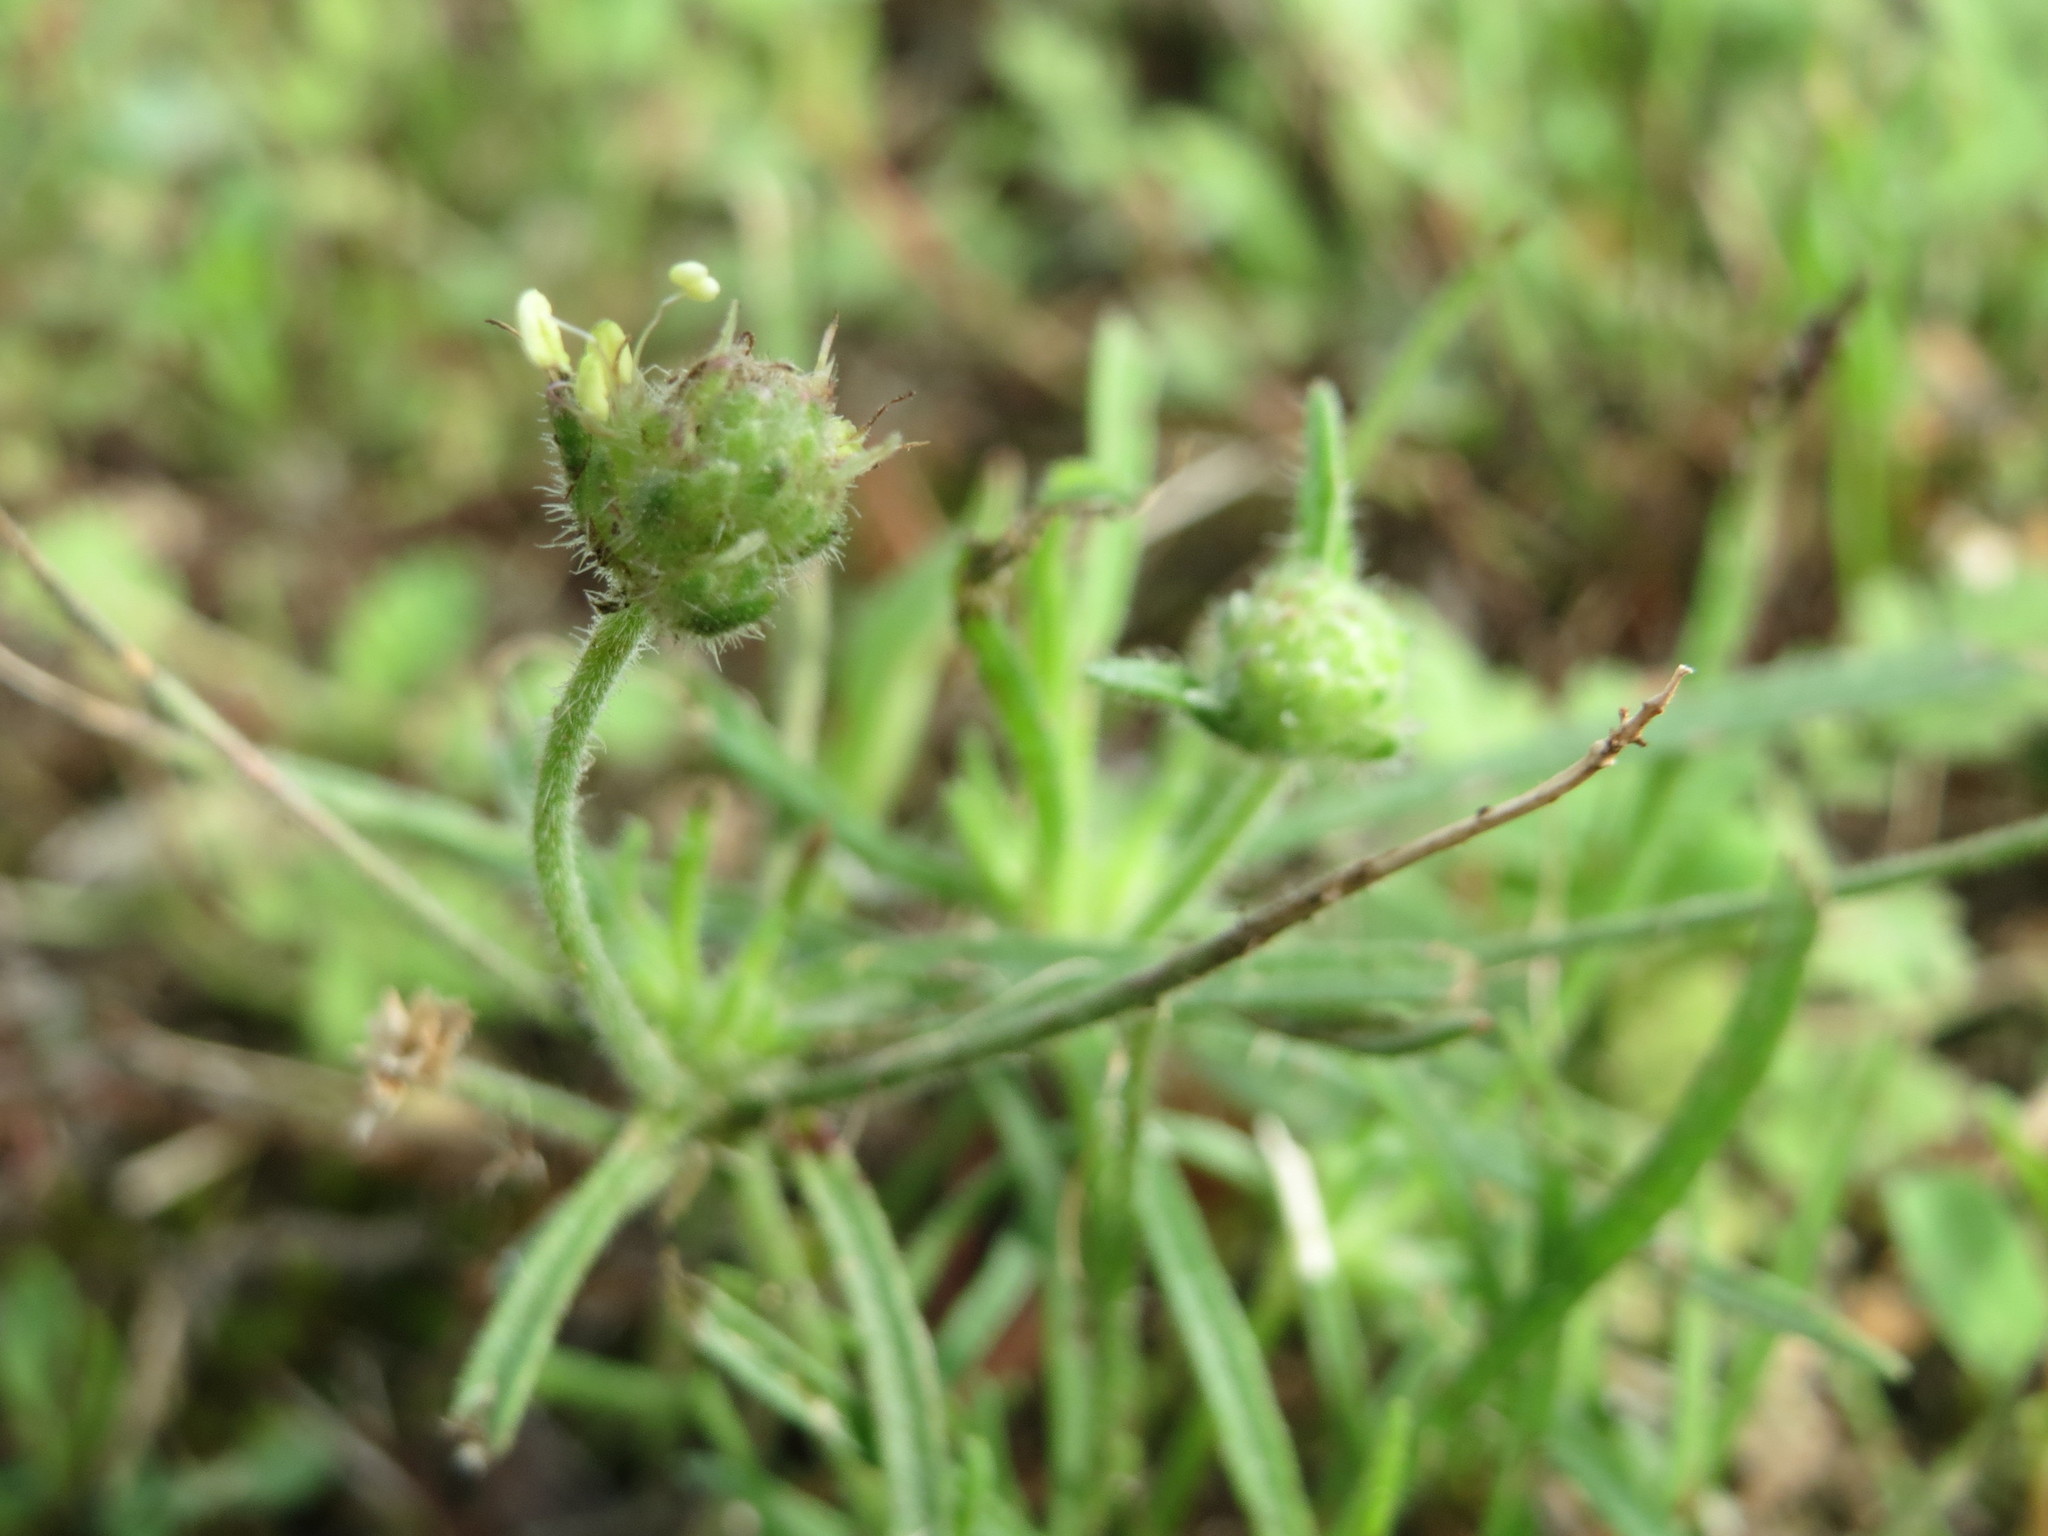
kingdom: Plantae
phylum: Tracheophyta
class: Magnoliopsida
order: Lamiales
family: Plantaginaceae
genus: Plantago
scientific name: Plantago arenaria
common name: Branched plantain
